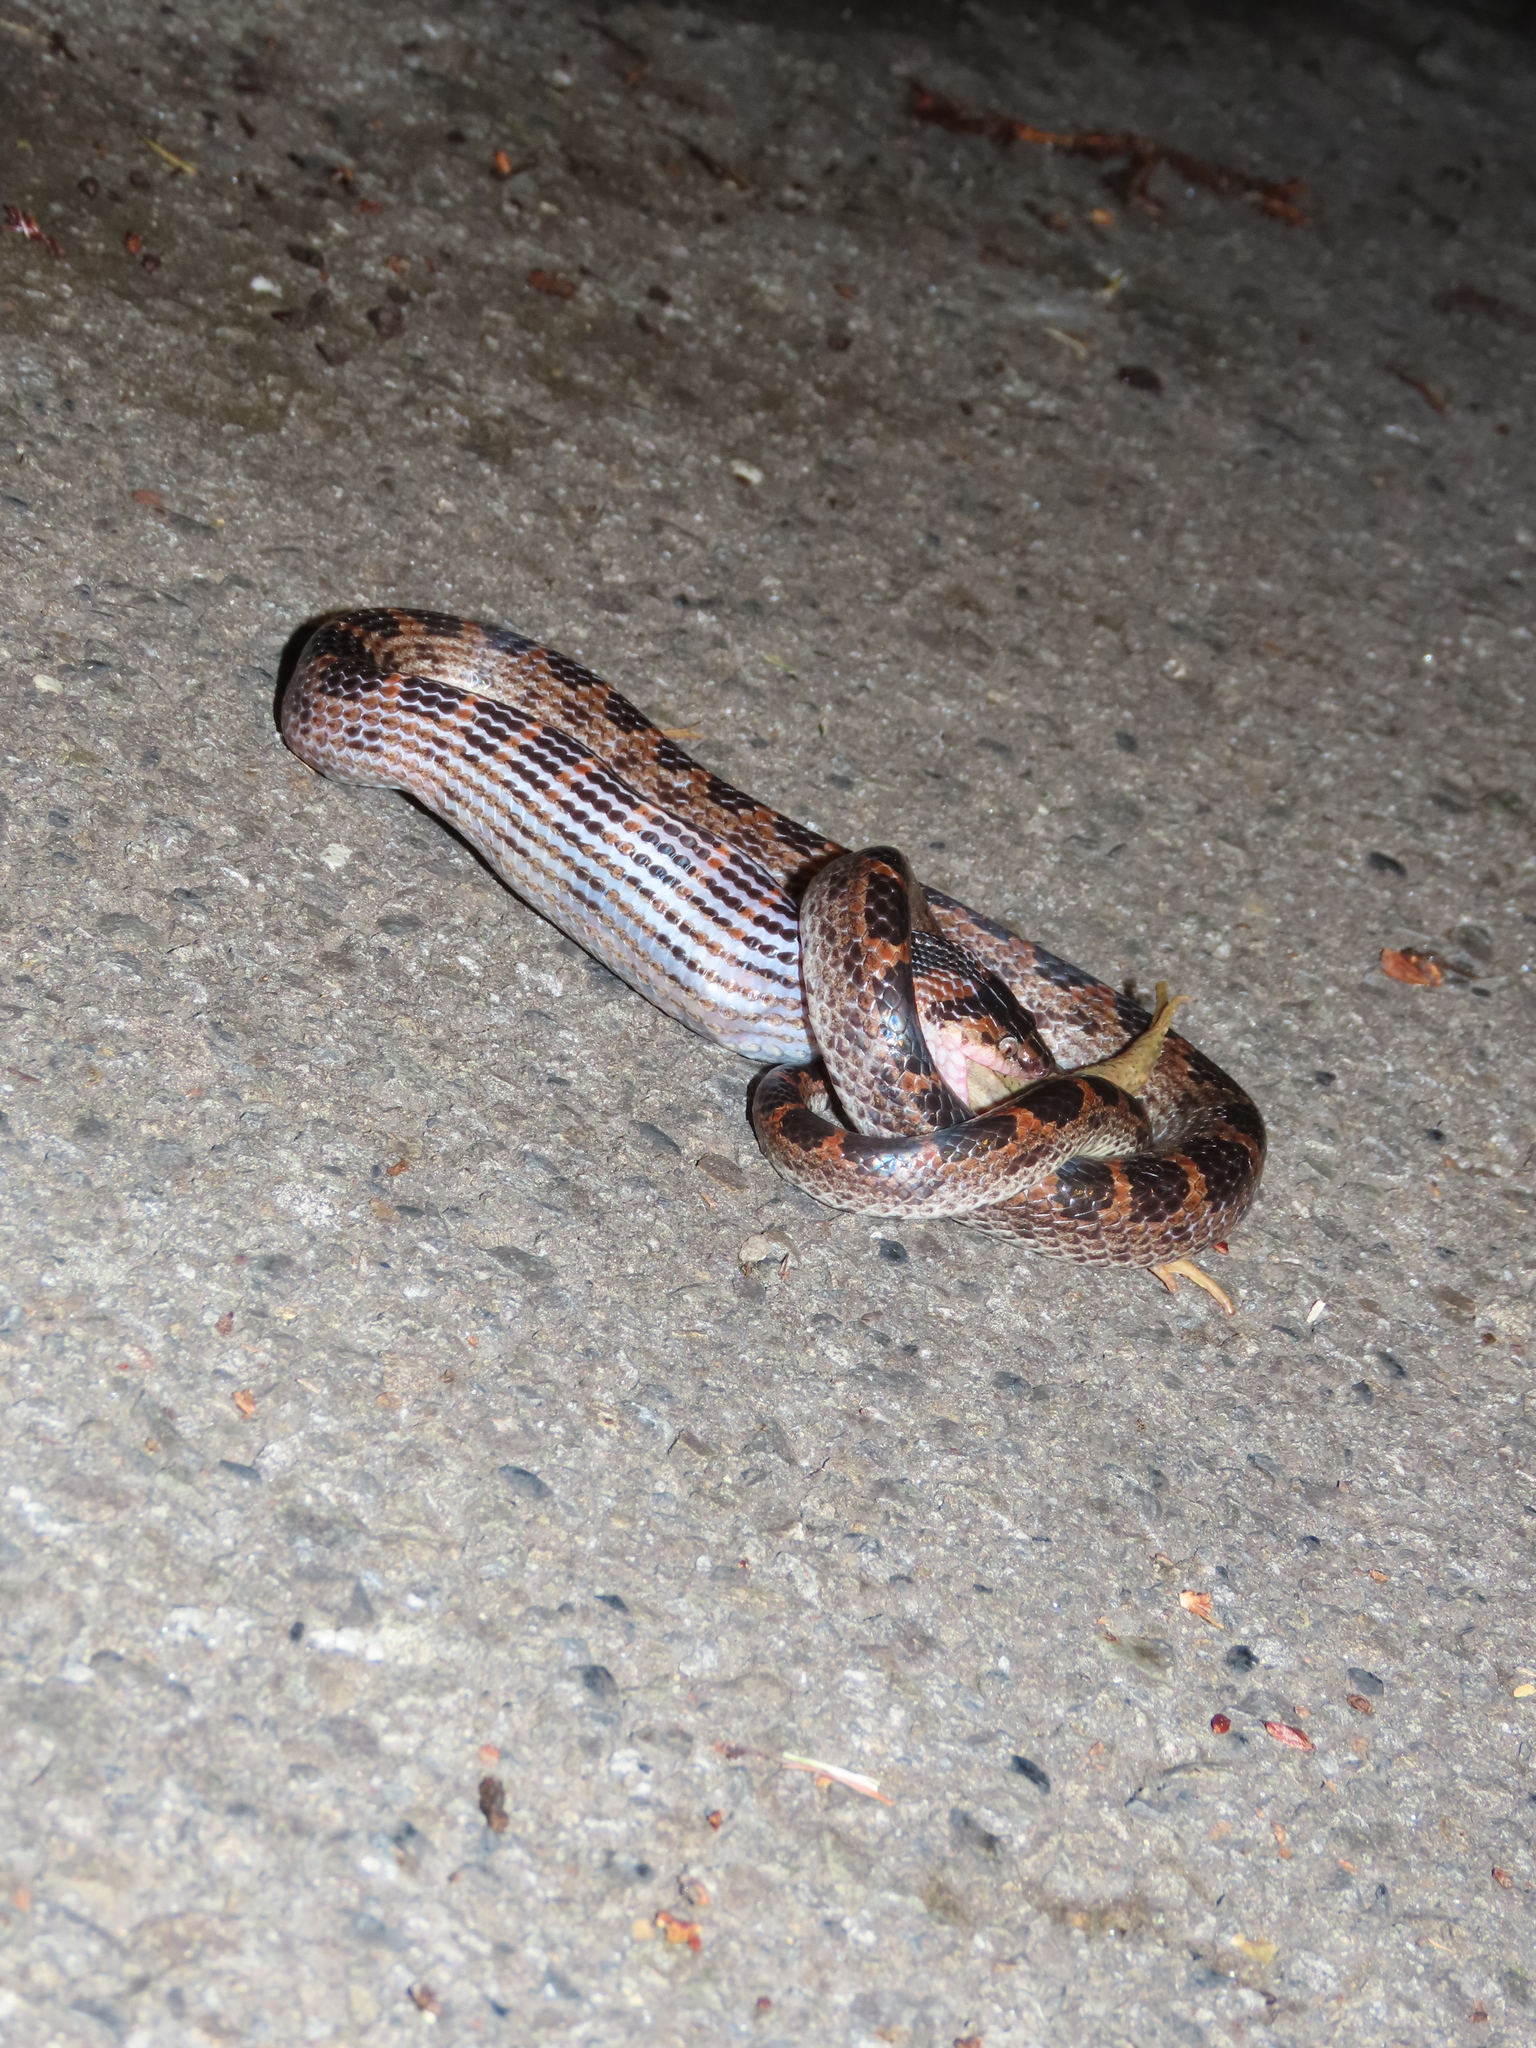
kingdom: Animalia
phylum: Chordata
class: Squamata
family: Colubridae
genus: Lycodon
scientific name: Lycodon rufozonatus
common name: Red-banded snake
